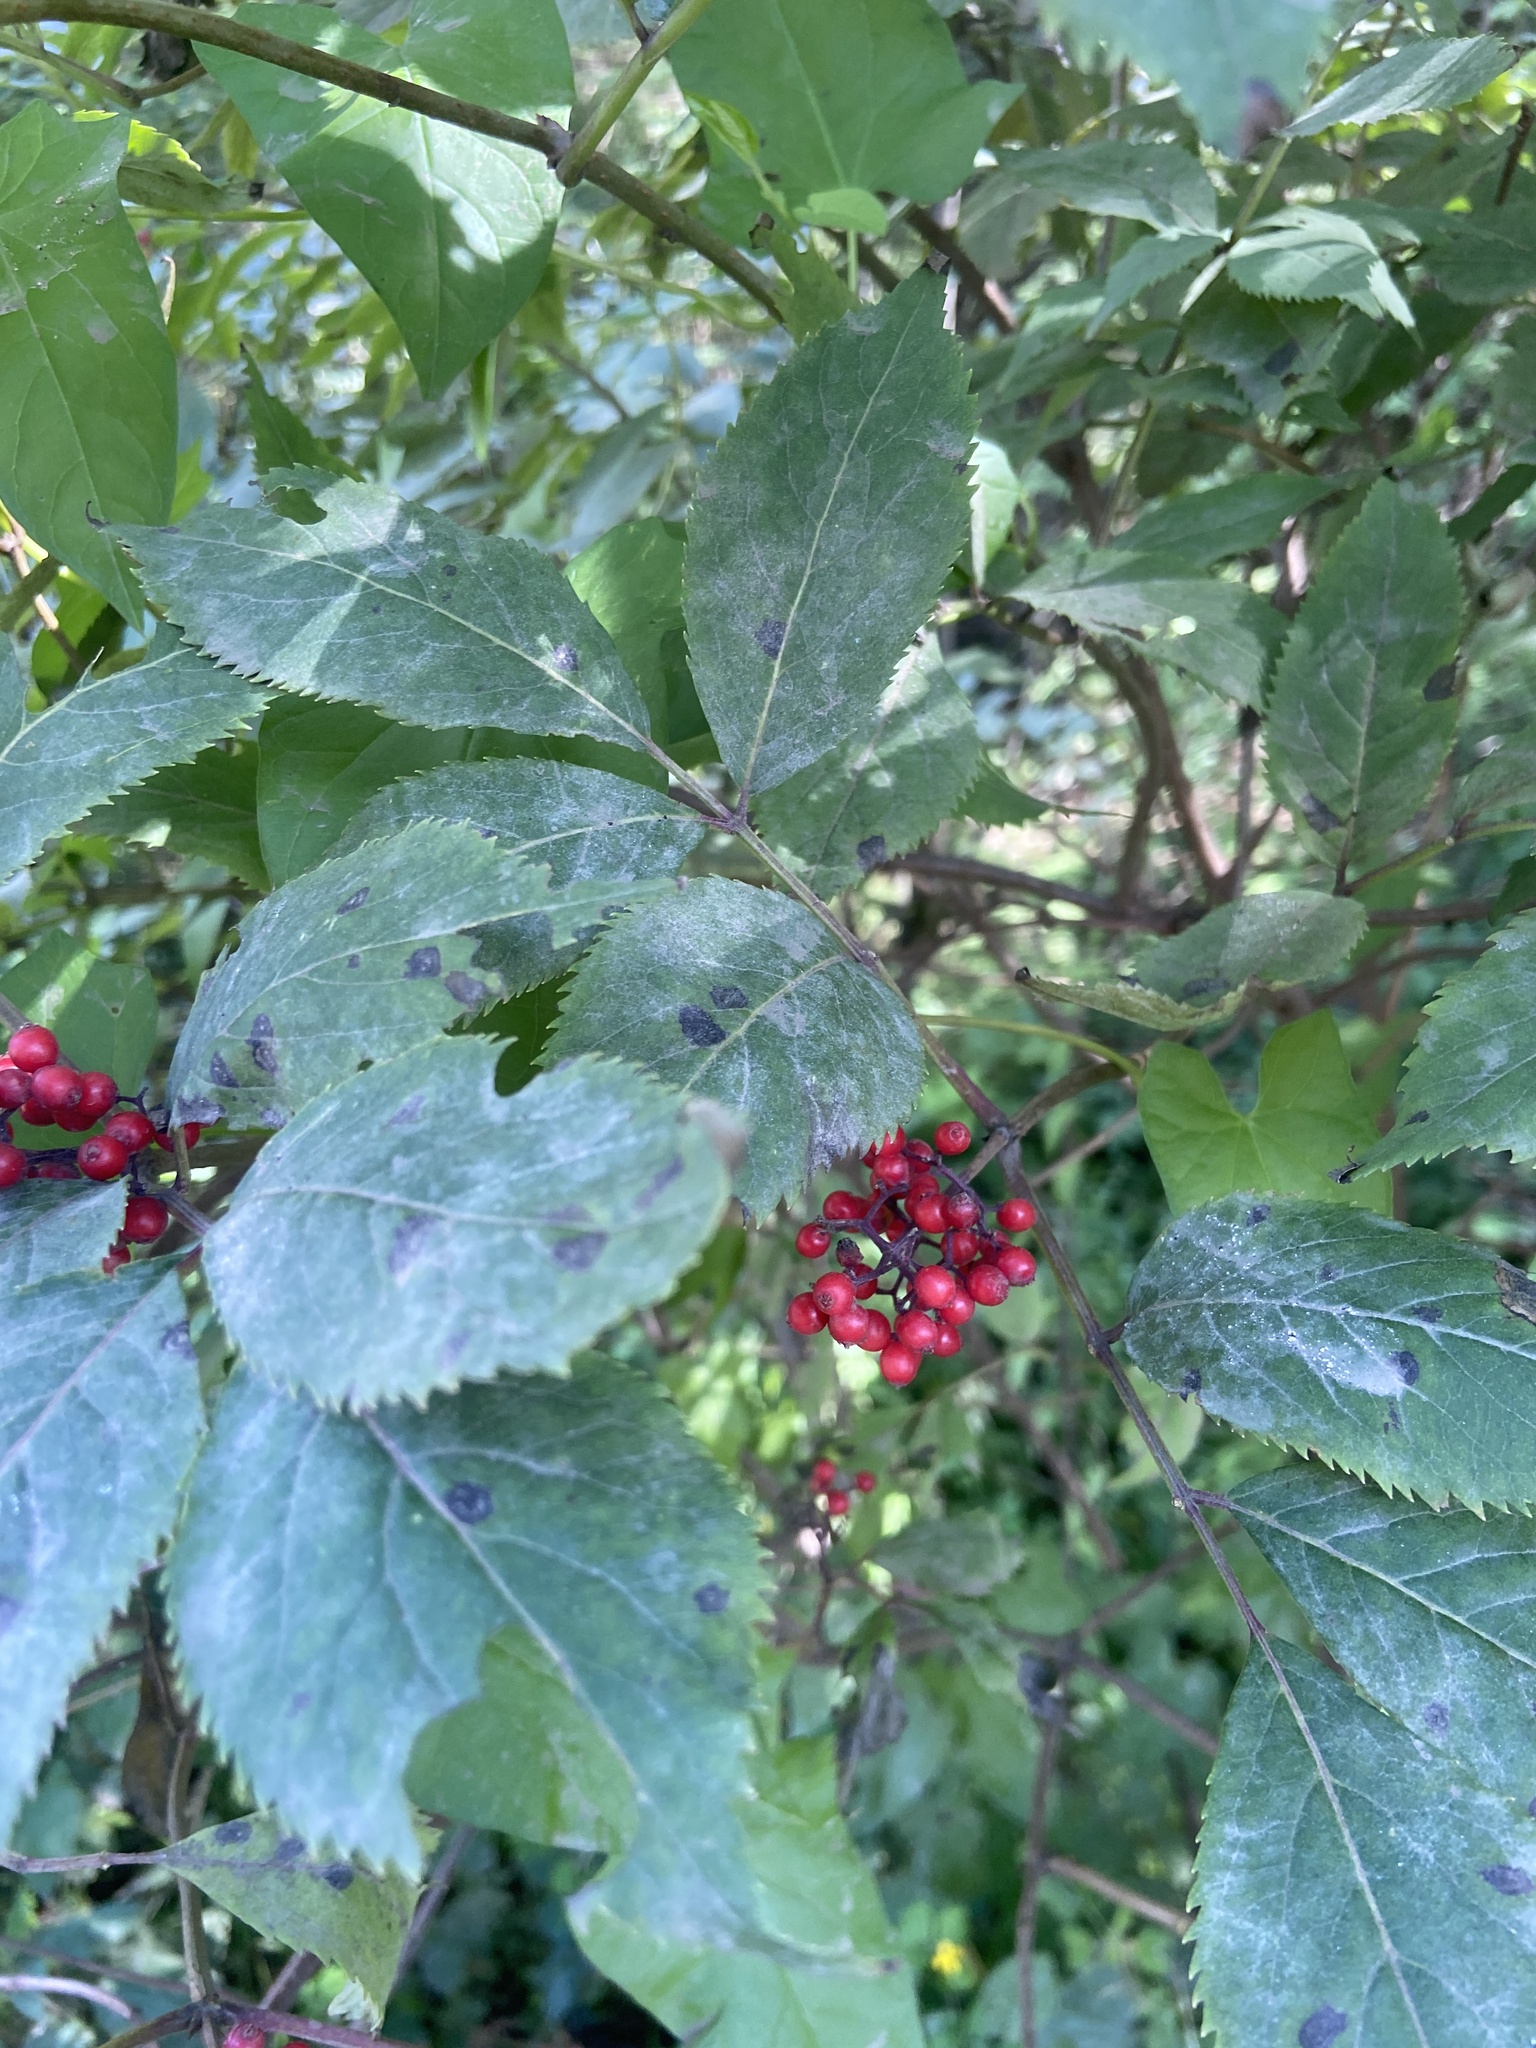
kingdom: Plantae
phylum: Tracheophyta
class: Magnoliopsida
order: Dipsacales
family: Viburnaceae
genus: Sambucus
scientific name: Sambucus racemosa
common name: Red-berried elder
